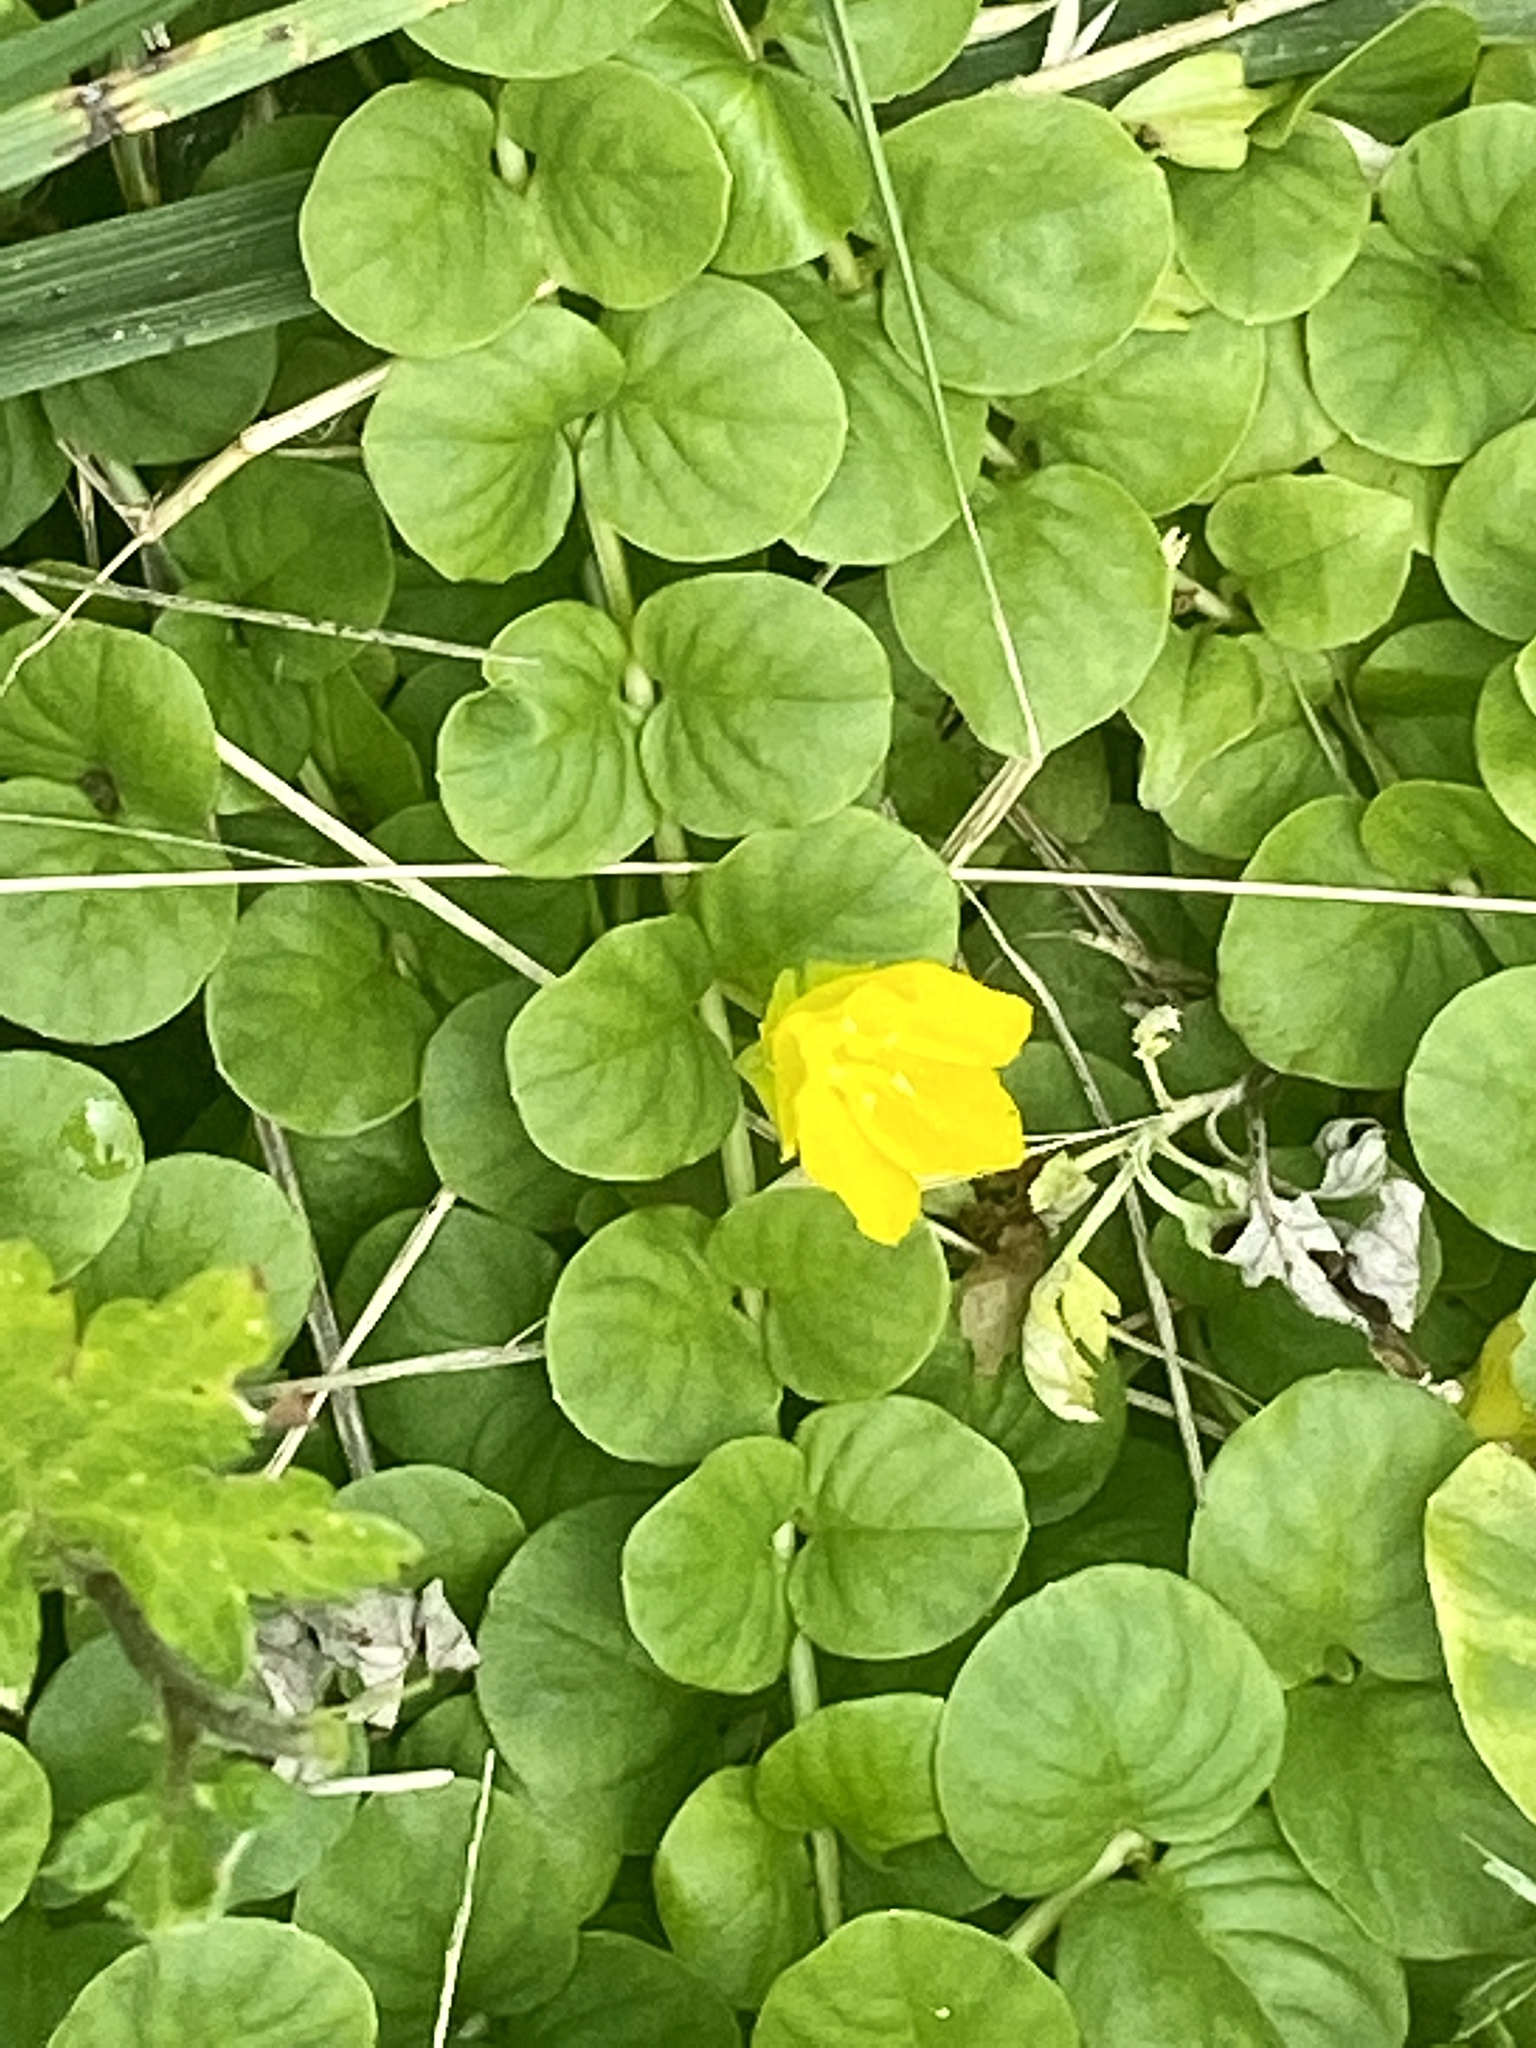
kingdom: Plantae
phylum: Tracheophyta
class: Magnoliopsida
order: Ericales
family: Primulaceae
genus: Lysimachia
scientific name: Lysimachia nummularia
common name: Moneywort
